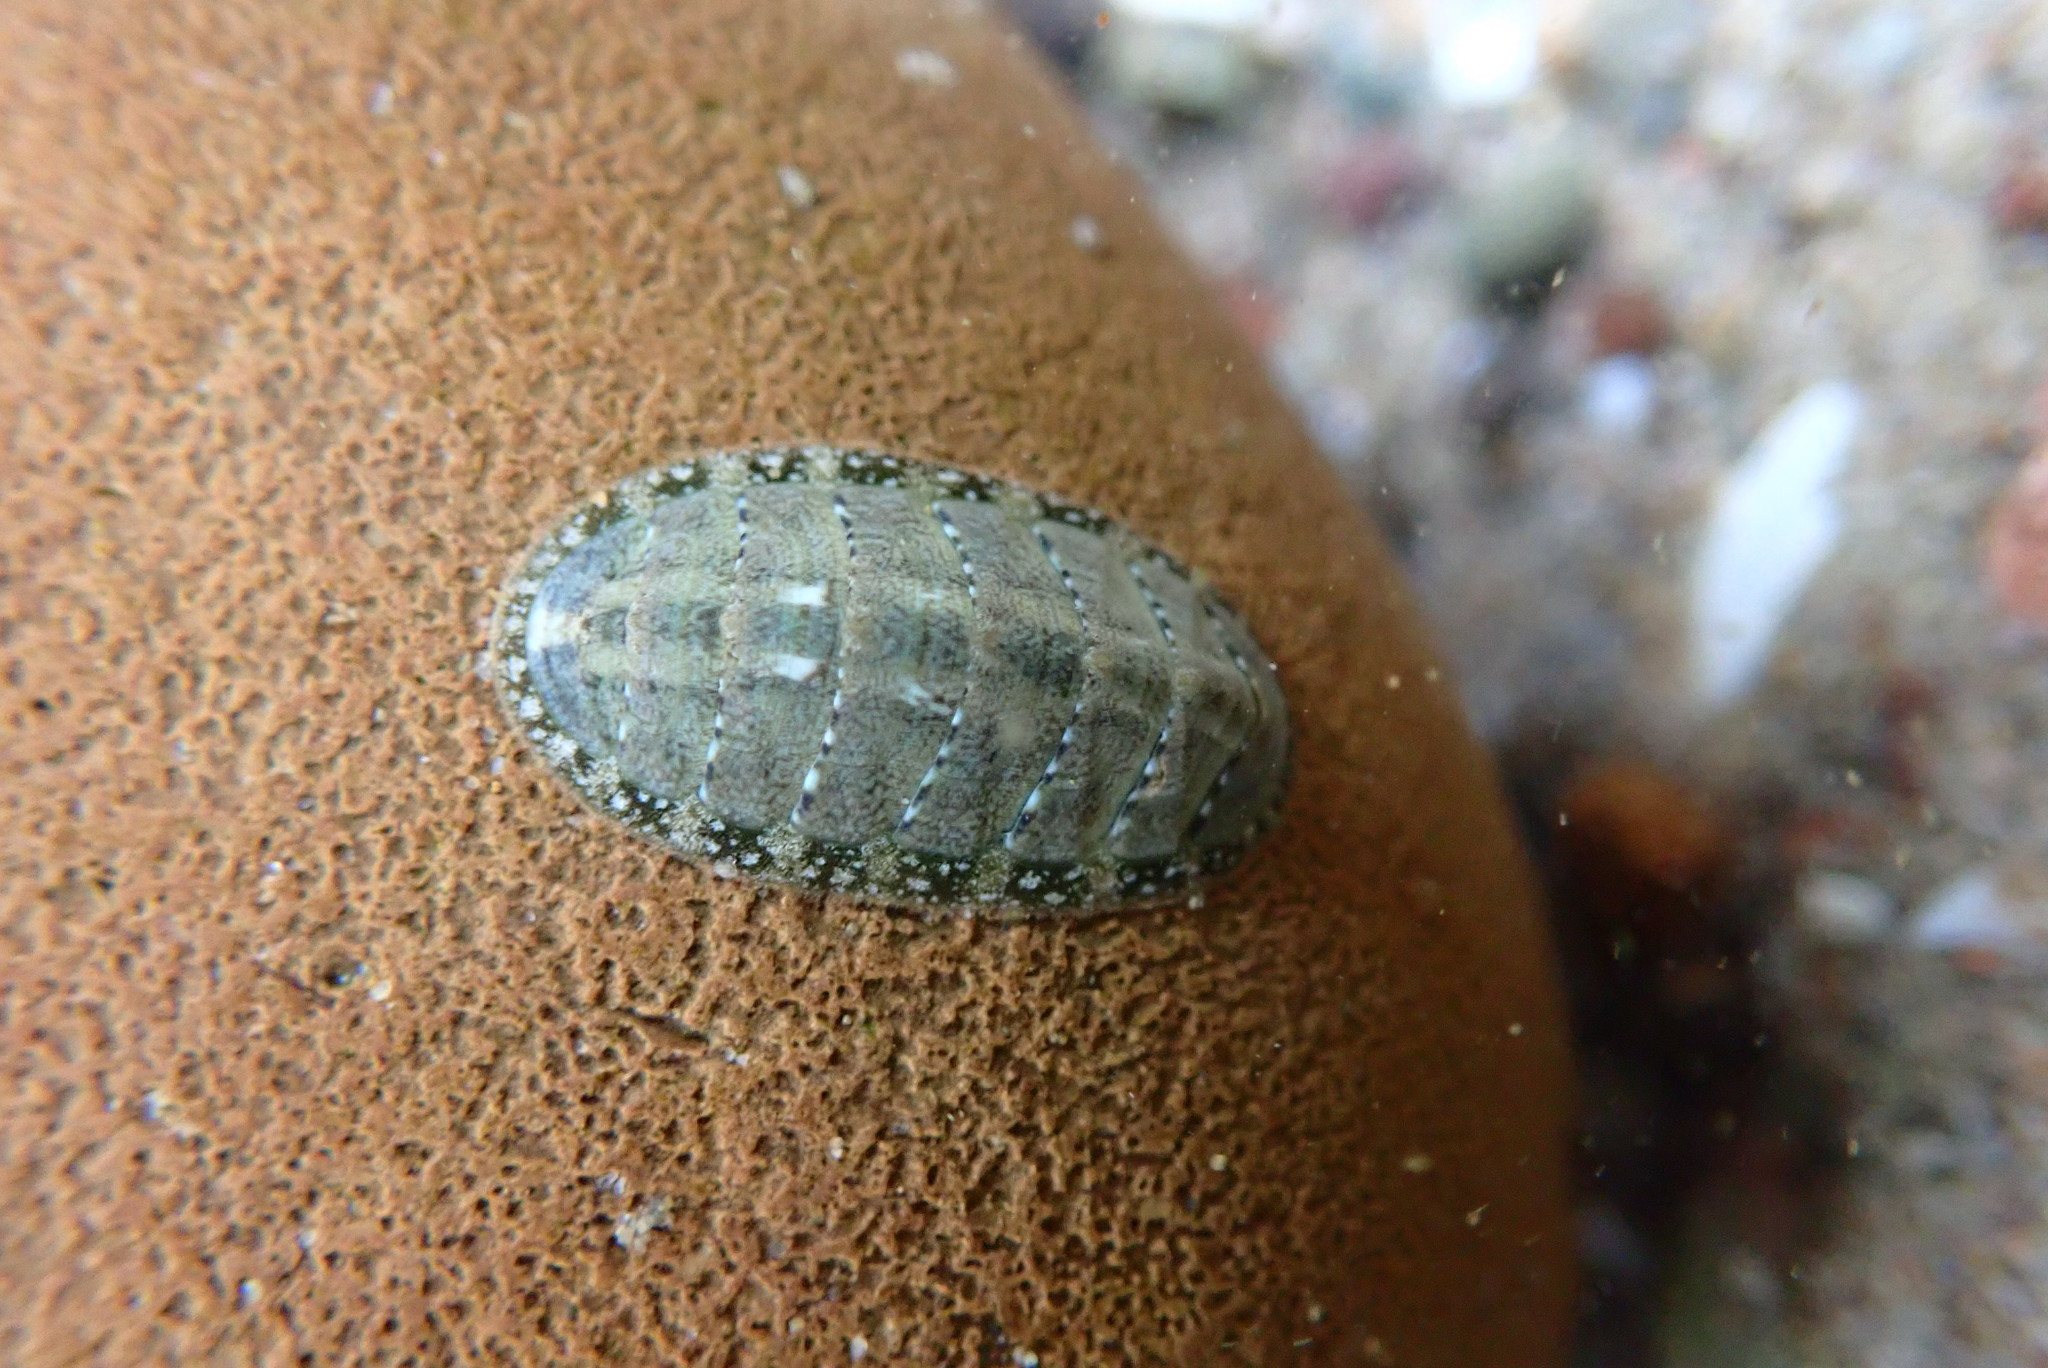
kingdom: Animalia
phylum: Mollusca
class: Polyplacophora
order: Chitonida
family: Tonicellidae
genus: Cyanoplax
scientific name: Cyanoplax keepiana
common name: Keep's chiton
